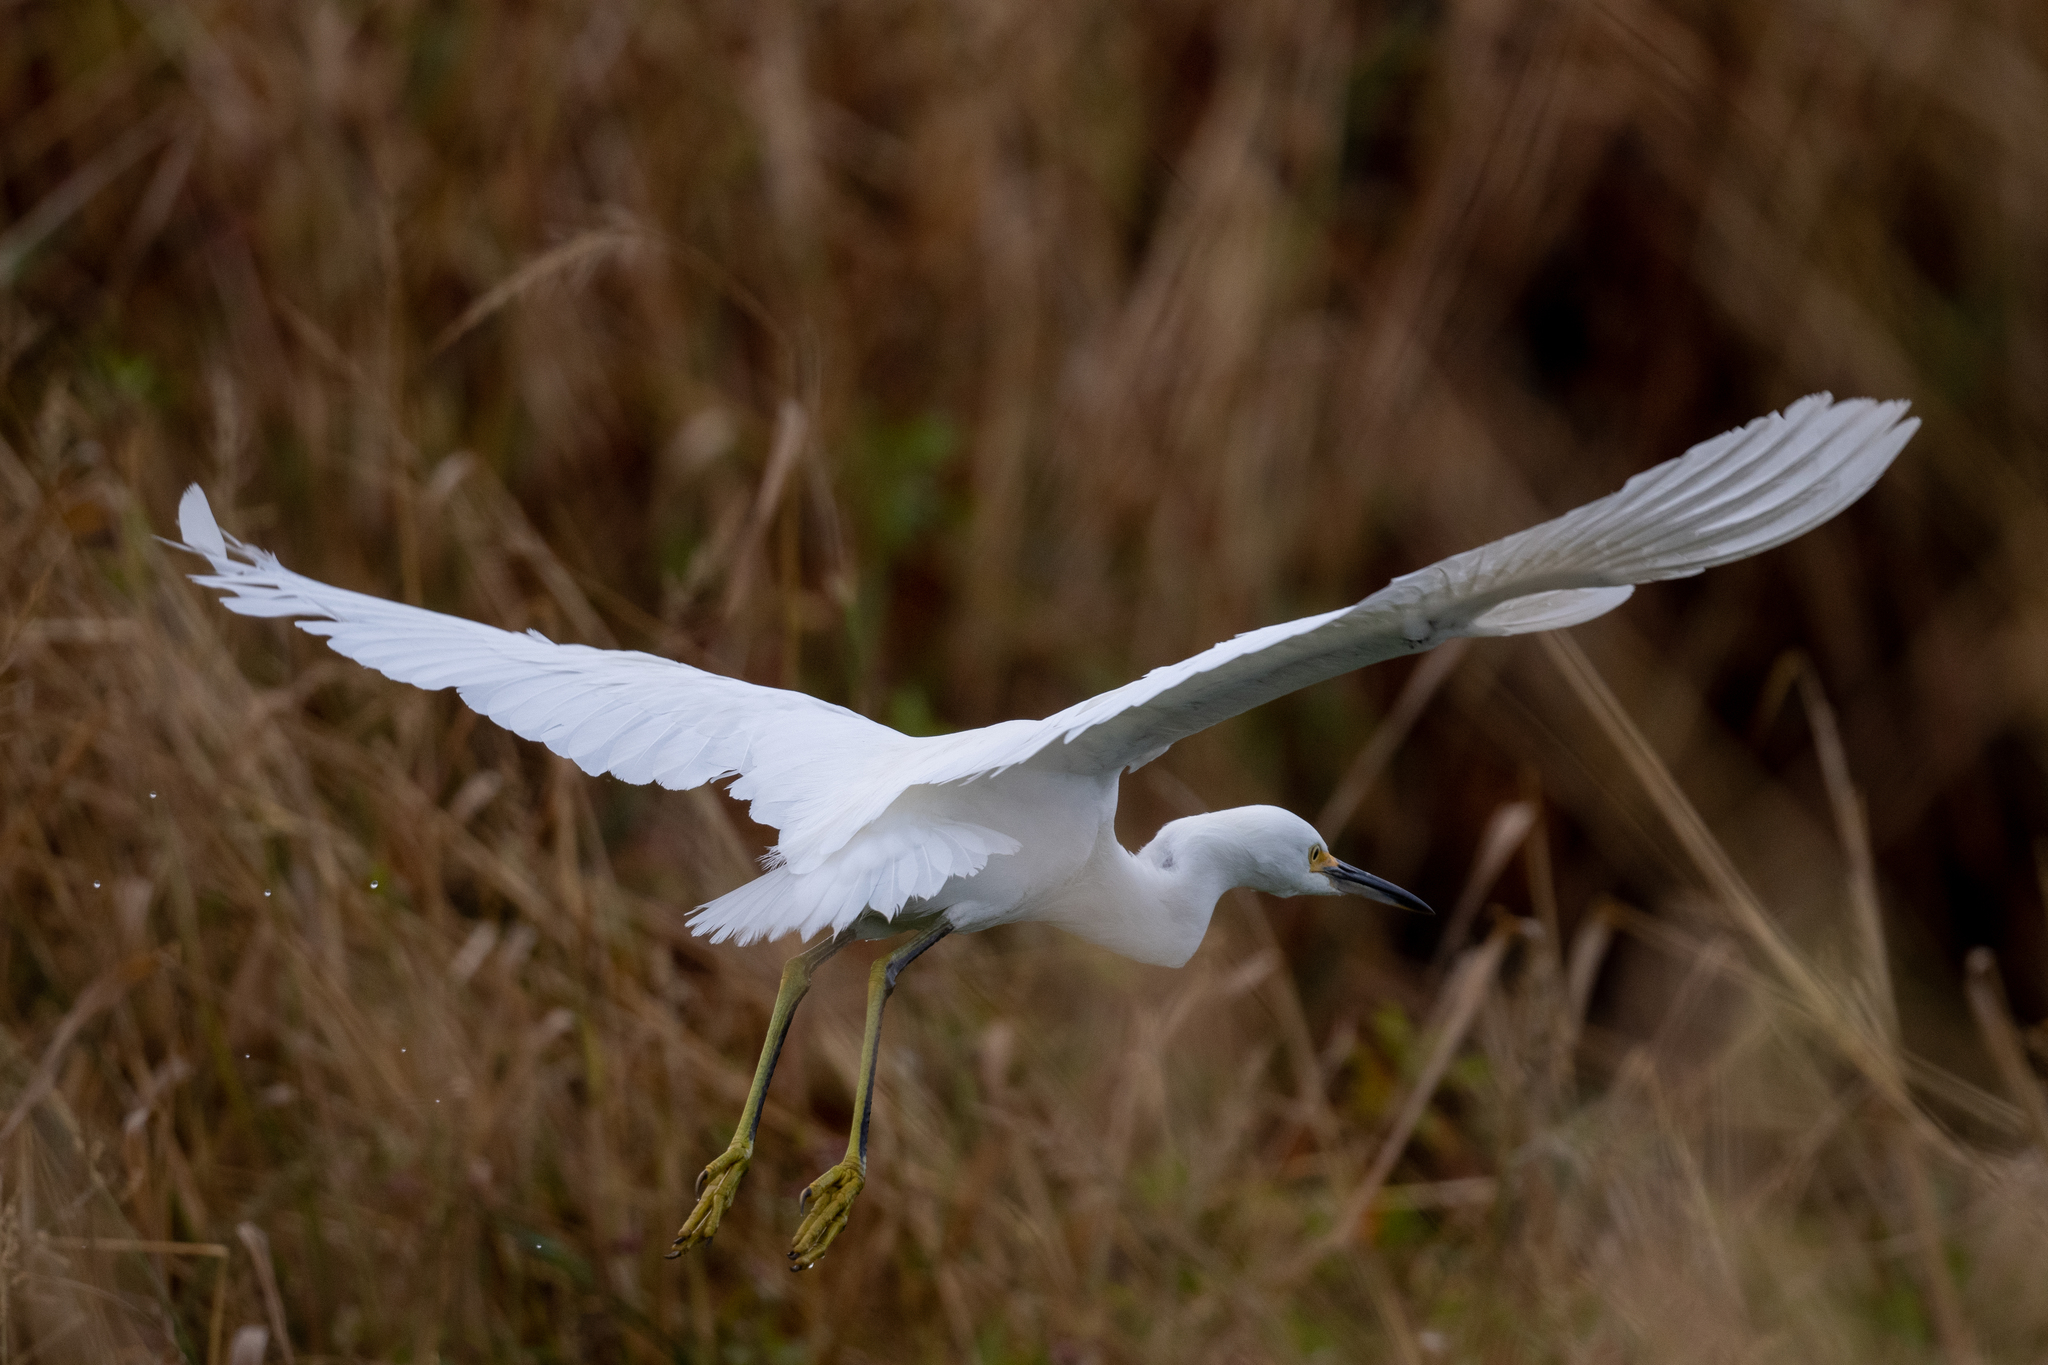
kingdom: Animalia
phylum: Chordata
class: Aves
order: Pelecaniformes
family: Ardeidae
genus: Egretta
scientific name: Egretta thula
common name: Snowy egret
